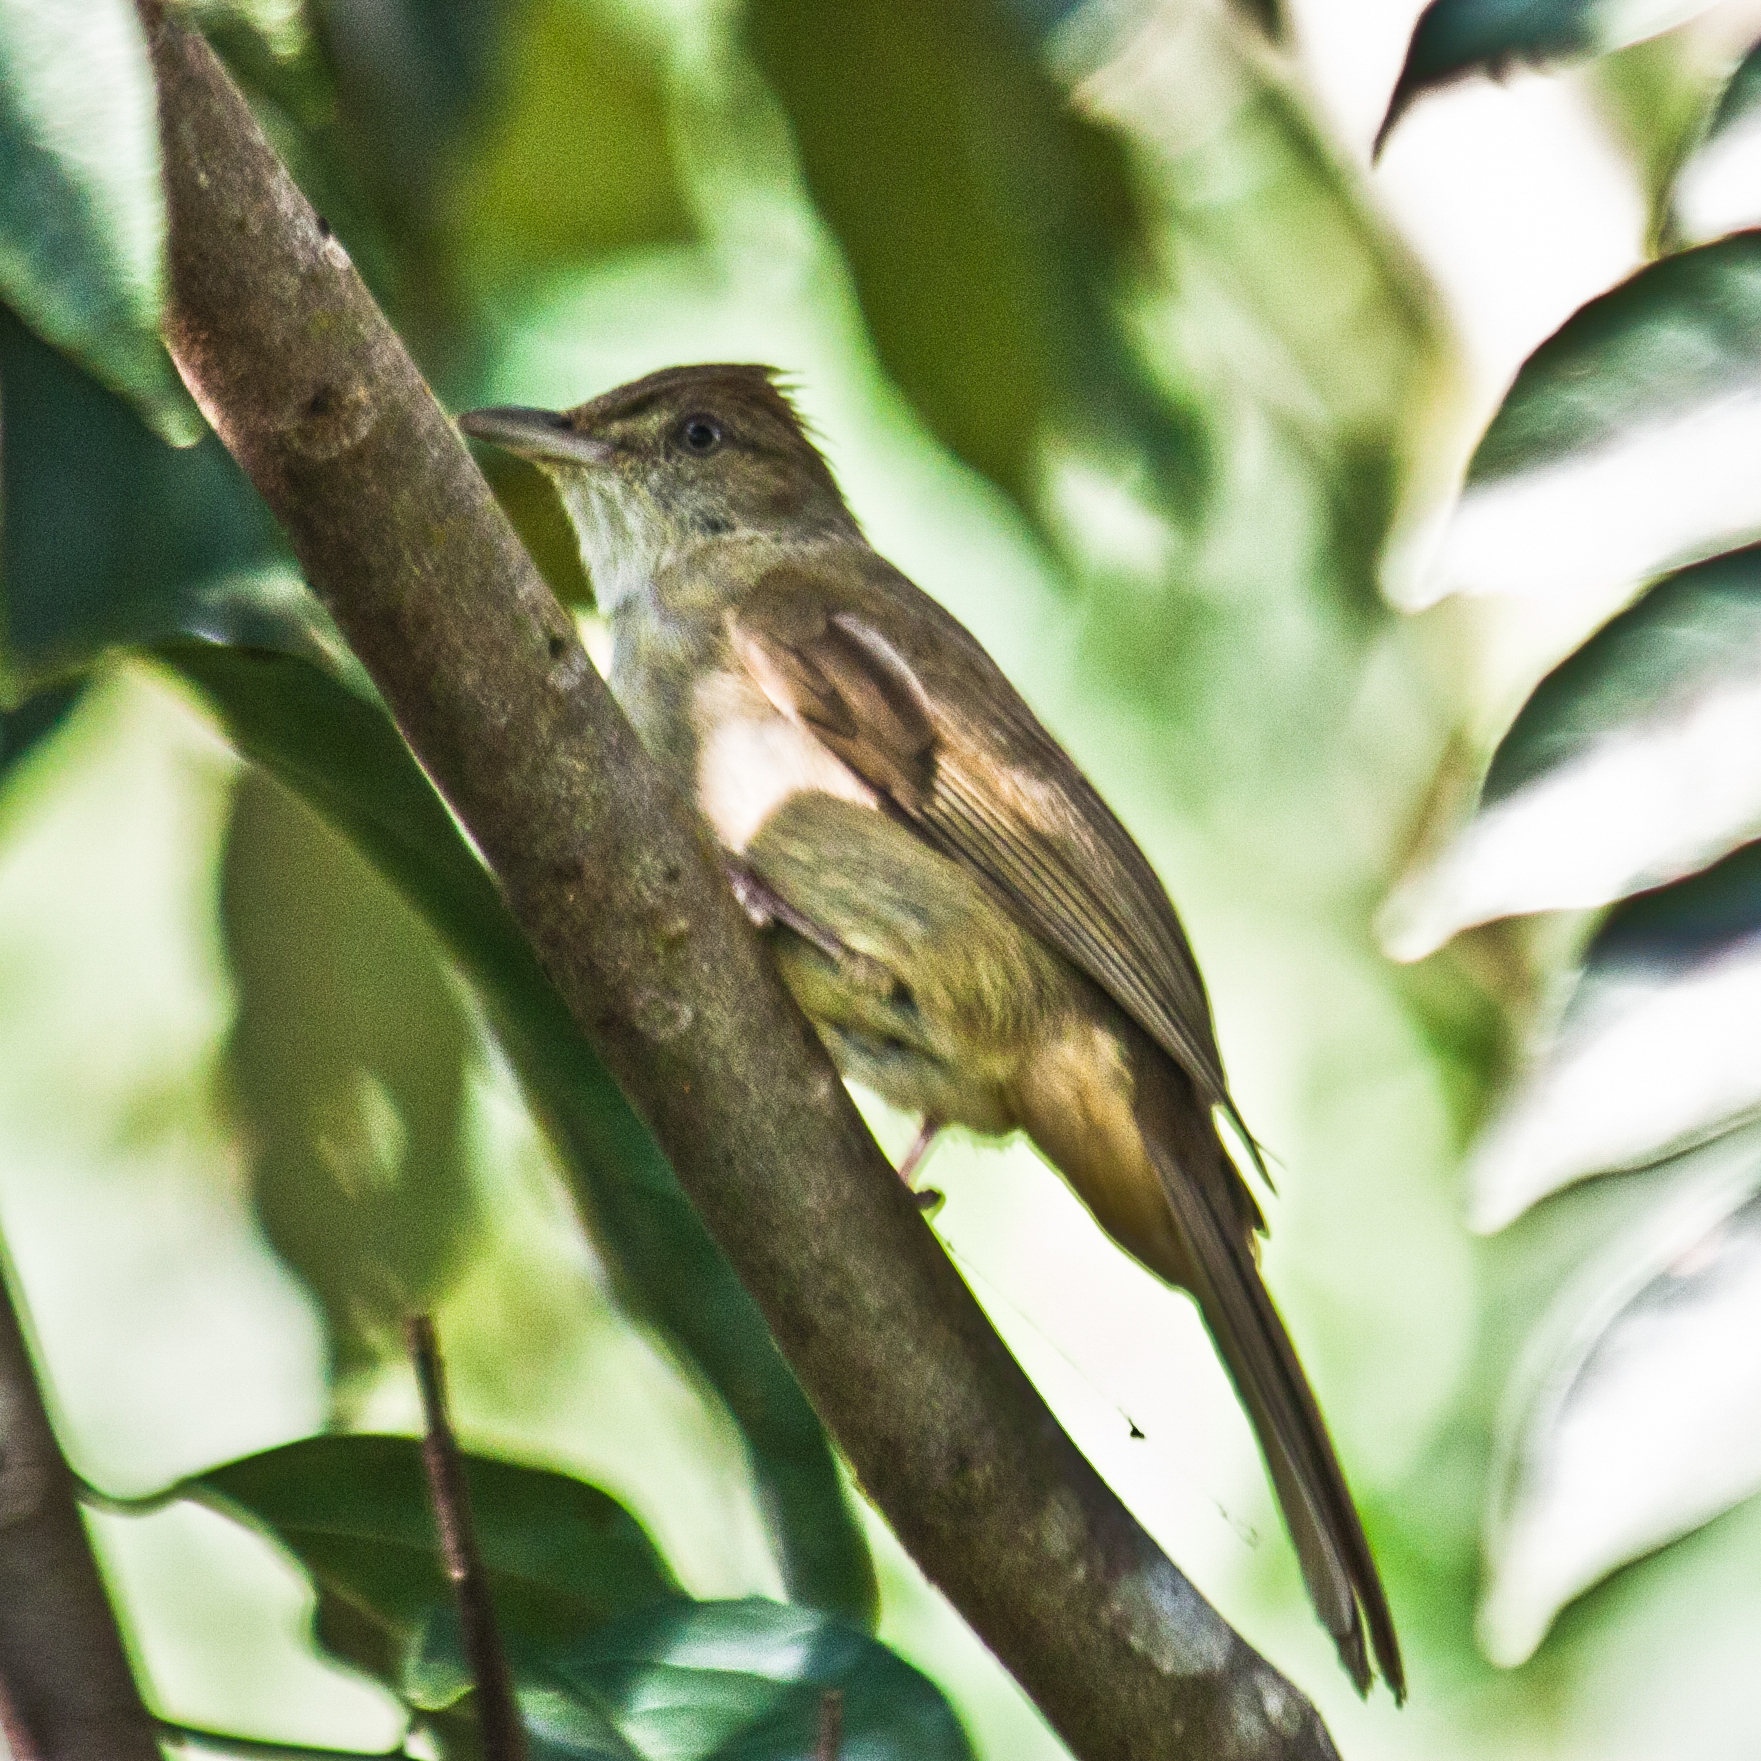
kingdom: Animalia
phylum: Chordata
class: Aves
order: Passeriformes
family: Pycnonotidae
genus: Iole
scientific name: Iole propinqua
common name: Grey-eyed bulbul
